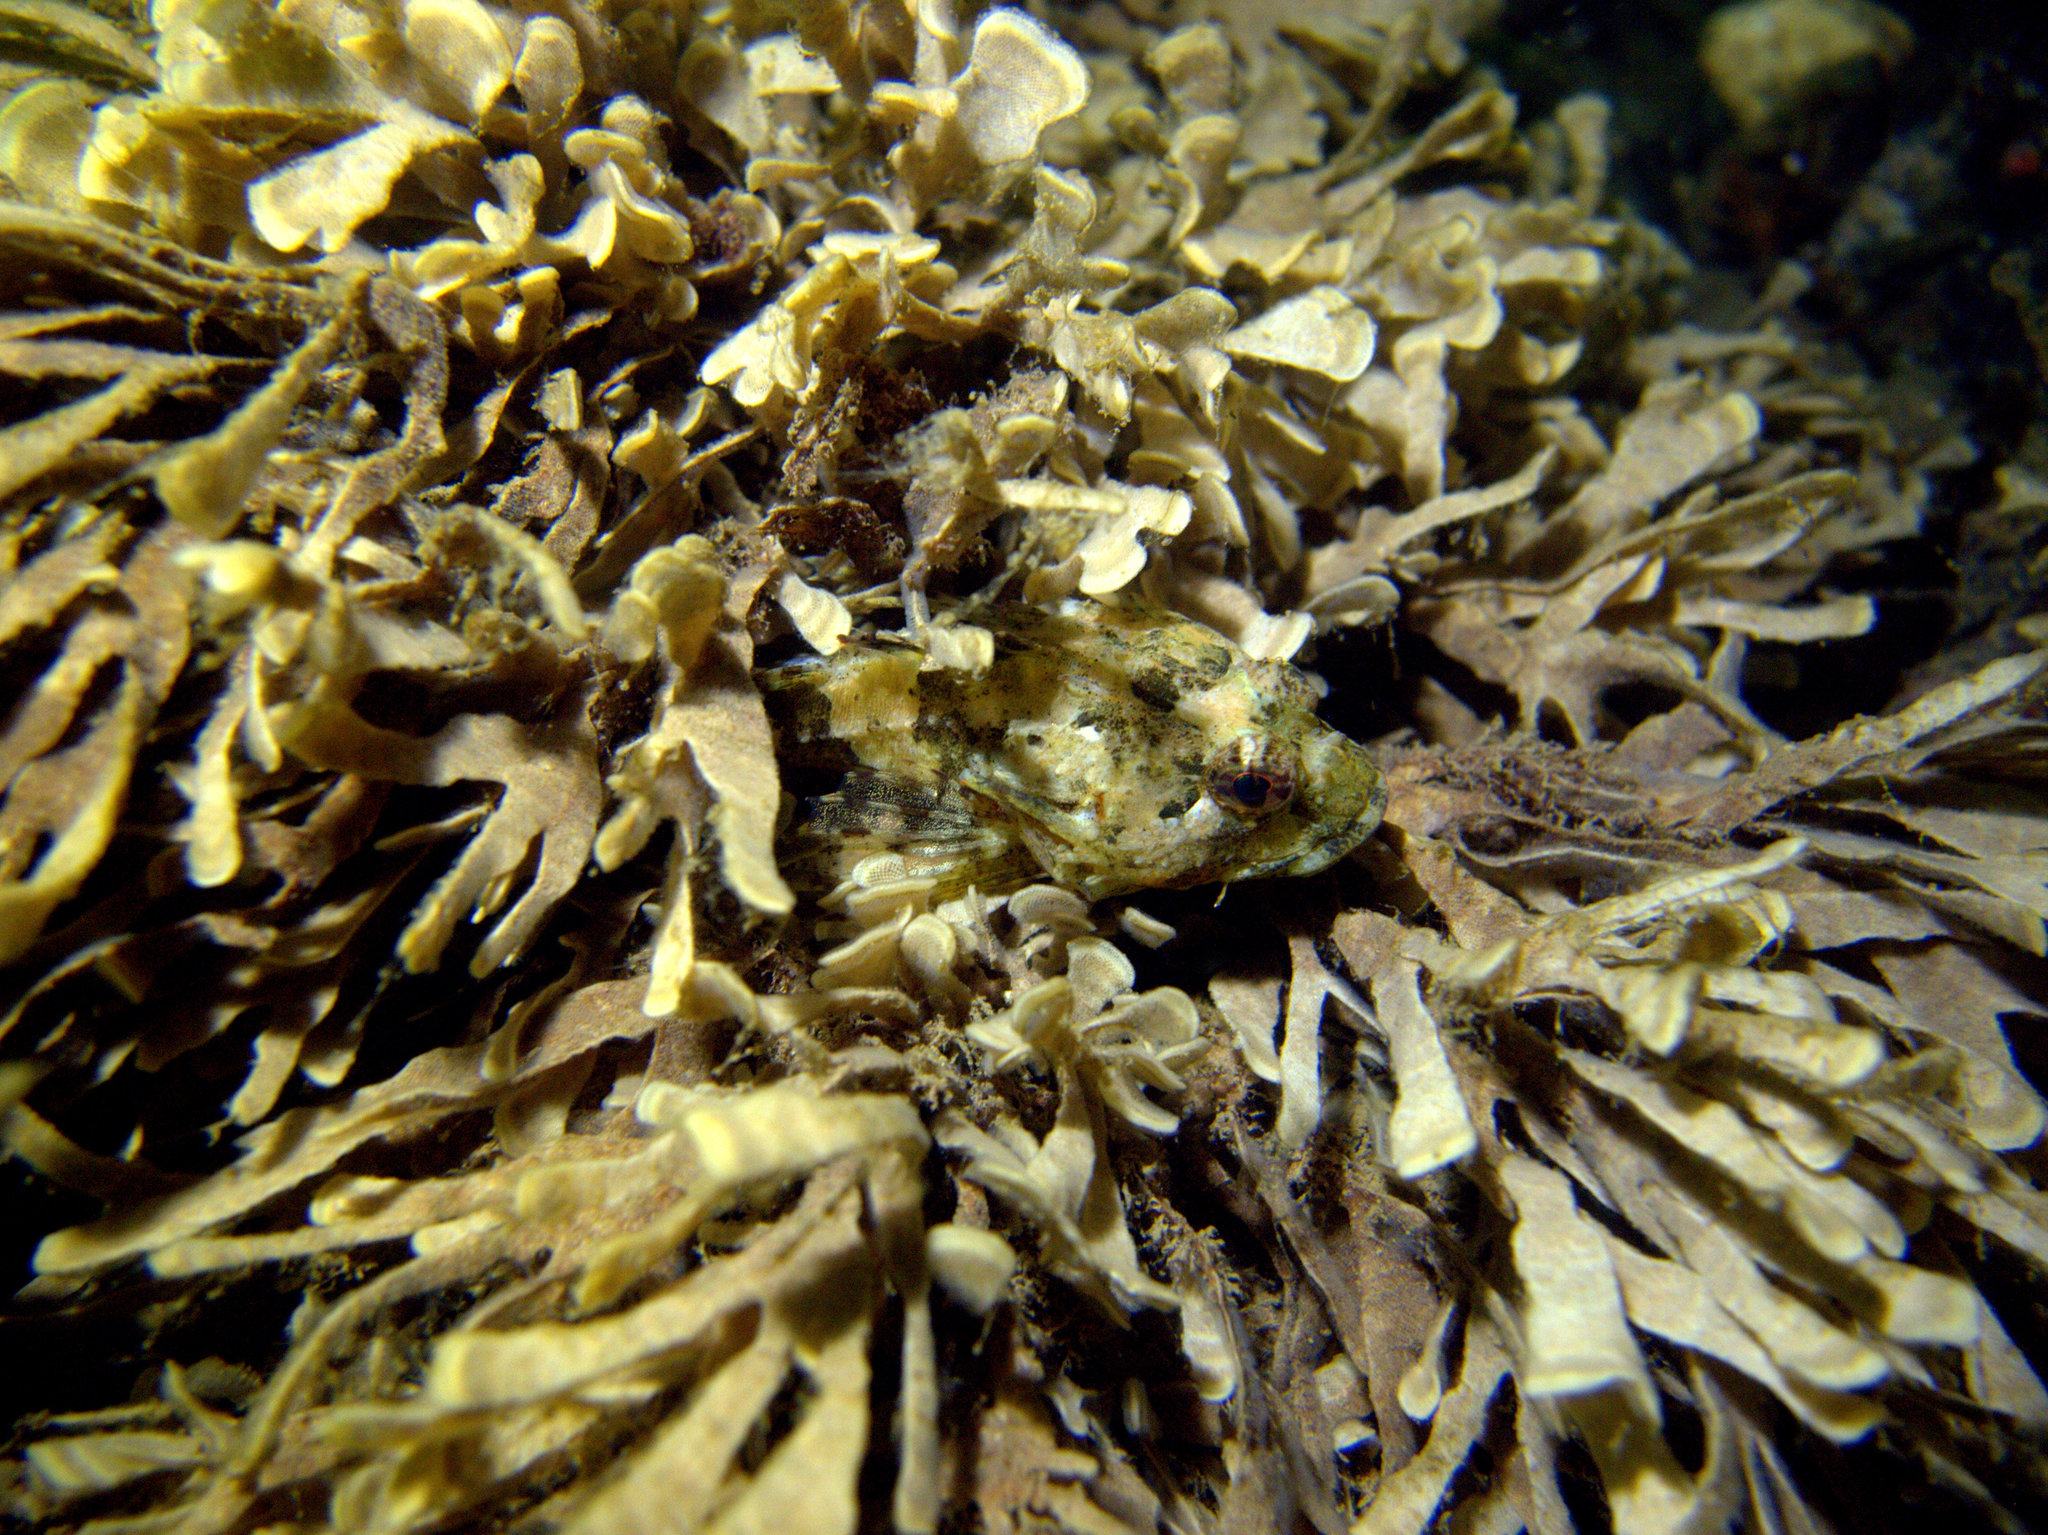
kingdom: Animalia
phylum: Chordata
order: Scorpaeniformes
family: Cottidae
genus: Taurulus
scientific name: Taurulus bubalis
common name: Sea scorpion
